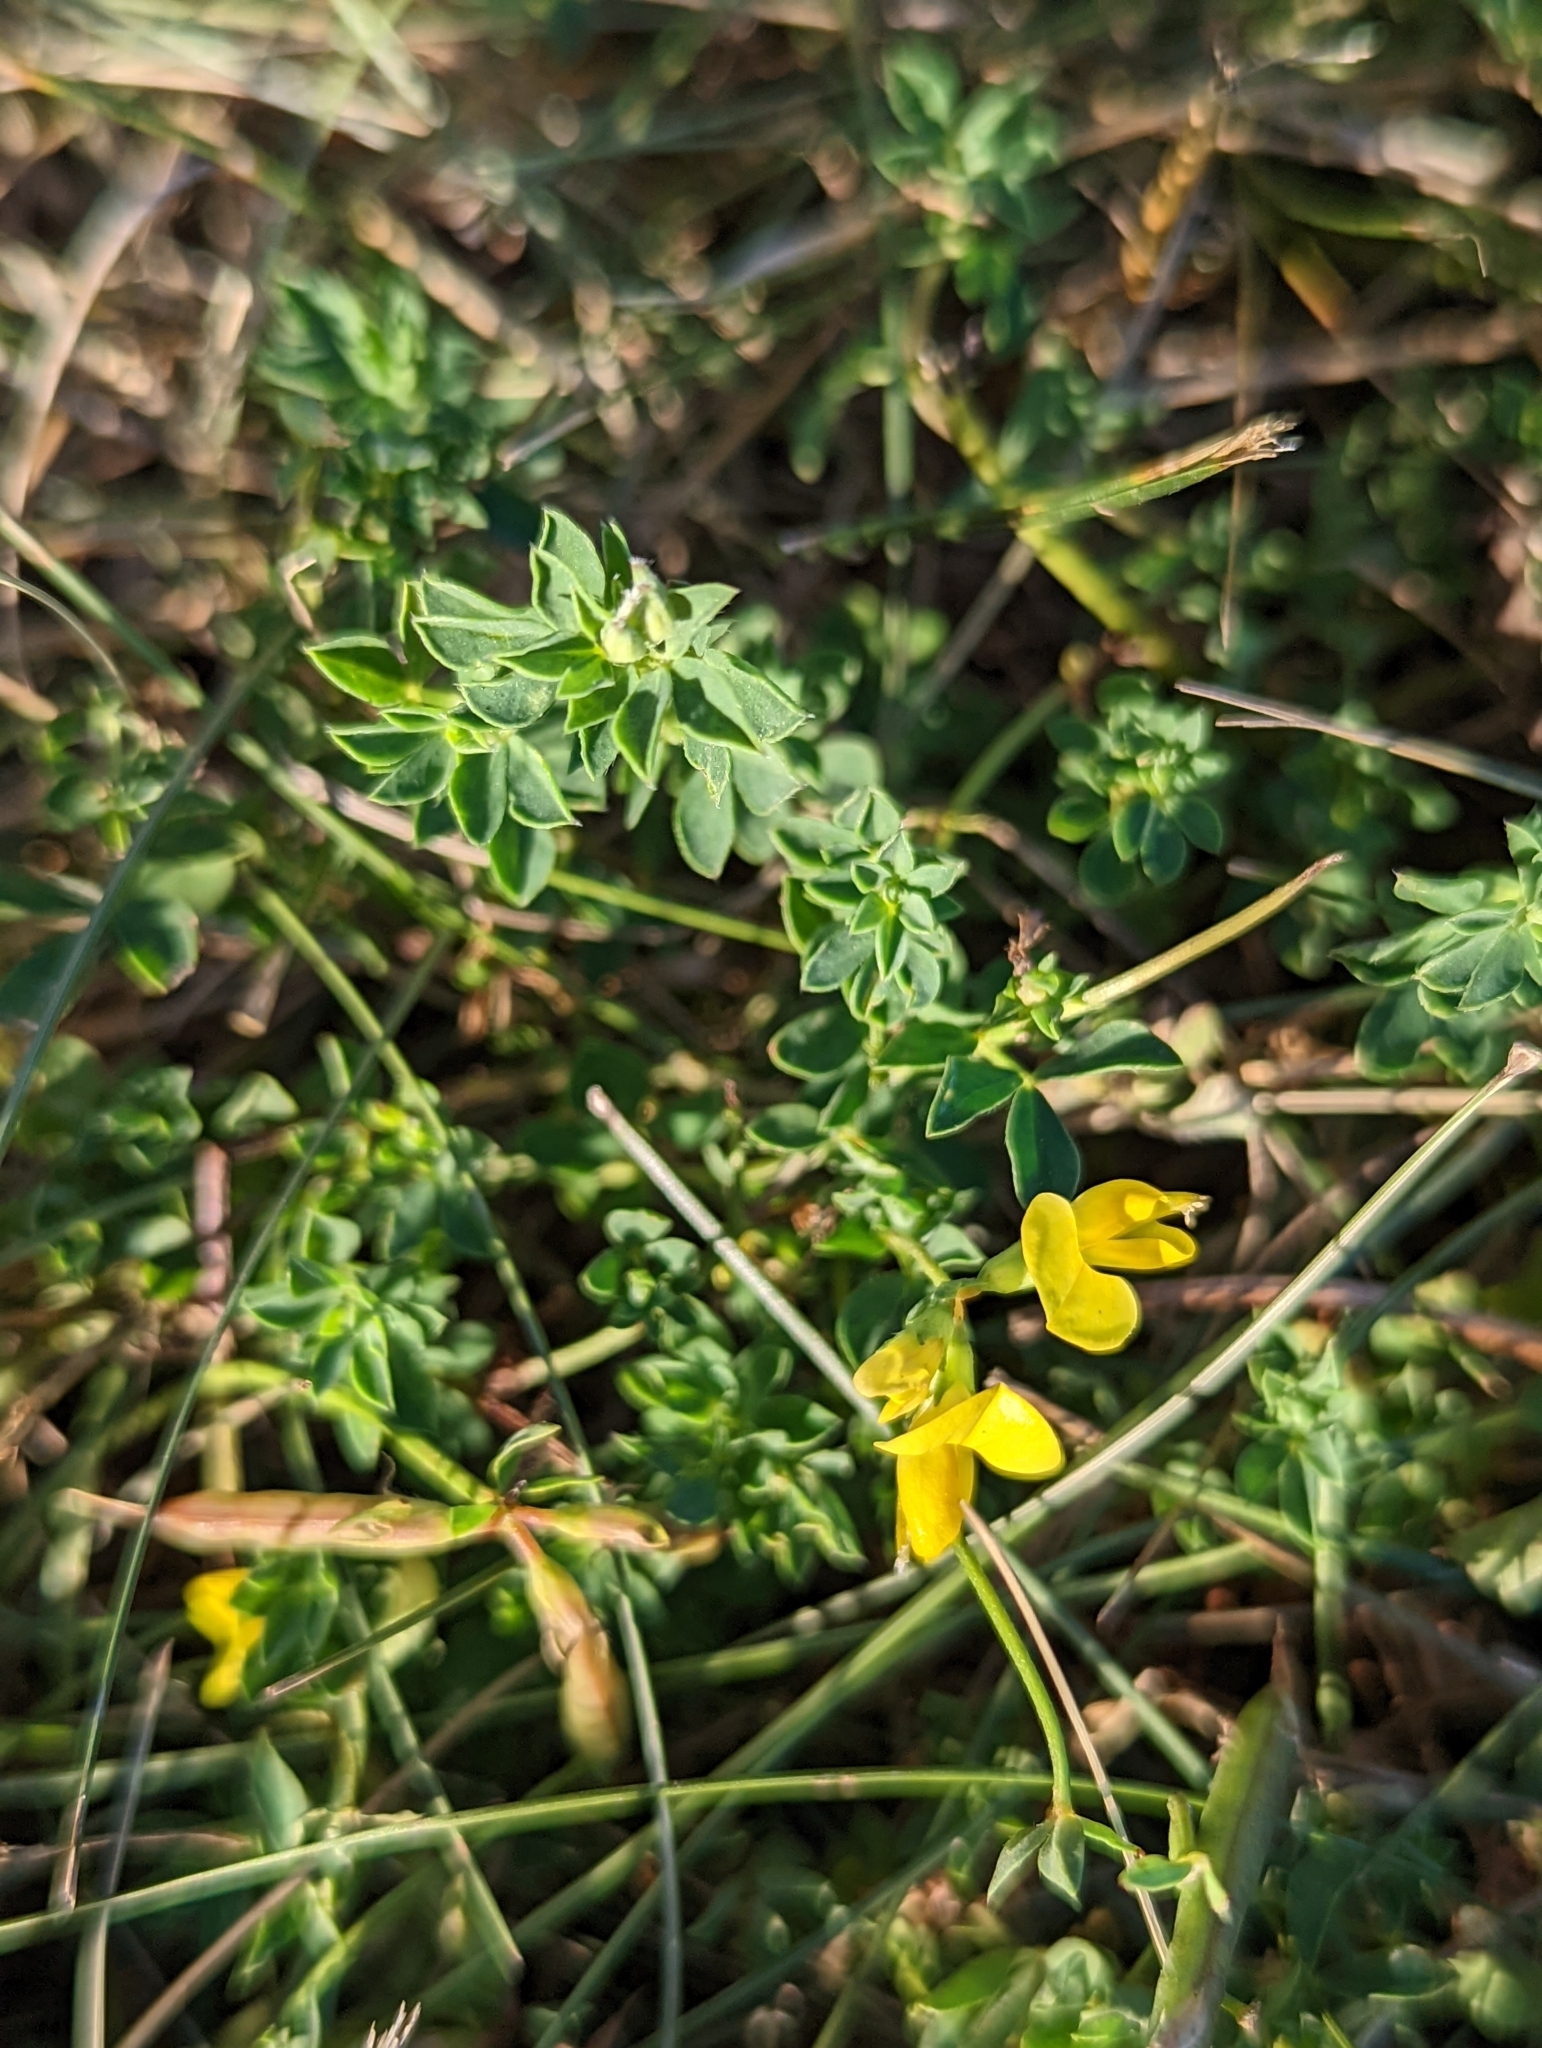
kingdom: Plantae
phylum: Tracheophyta
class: Magnoliopsida
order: Fabales
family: Fabaceae
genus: Lotus
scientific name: Lotus corniculatus
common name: Common bird's-foot-trefoil
